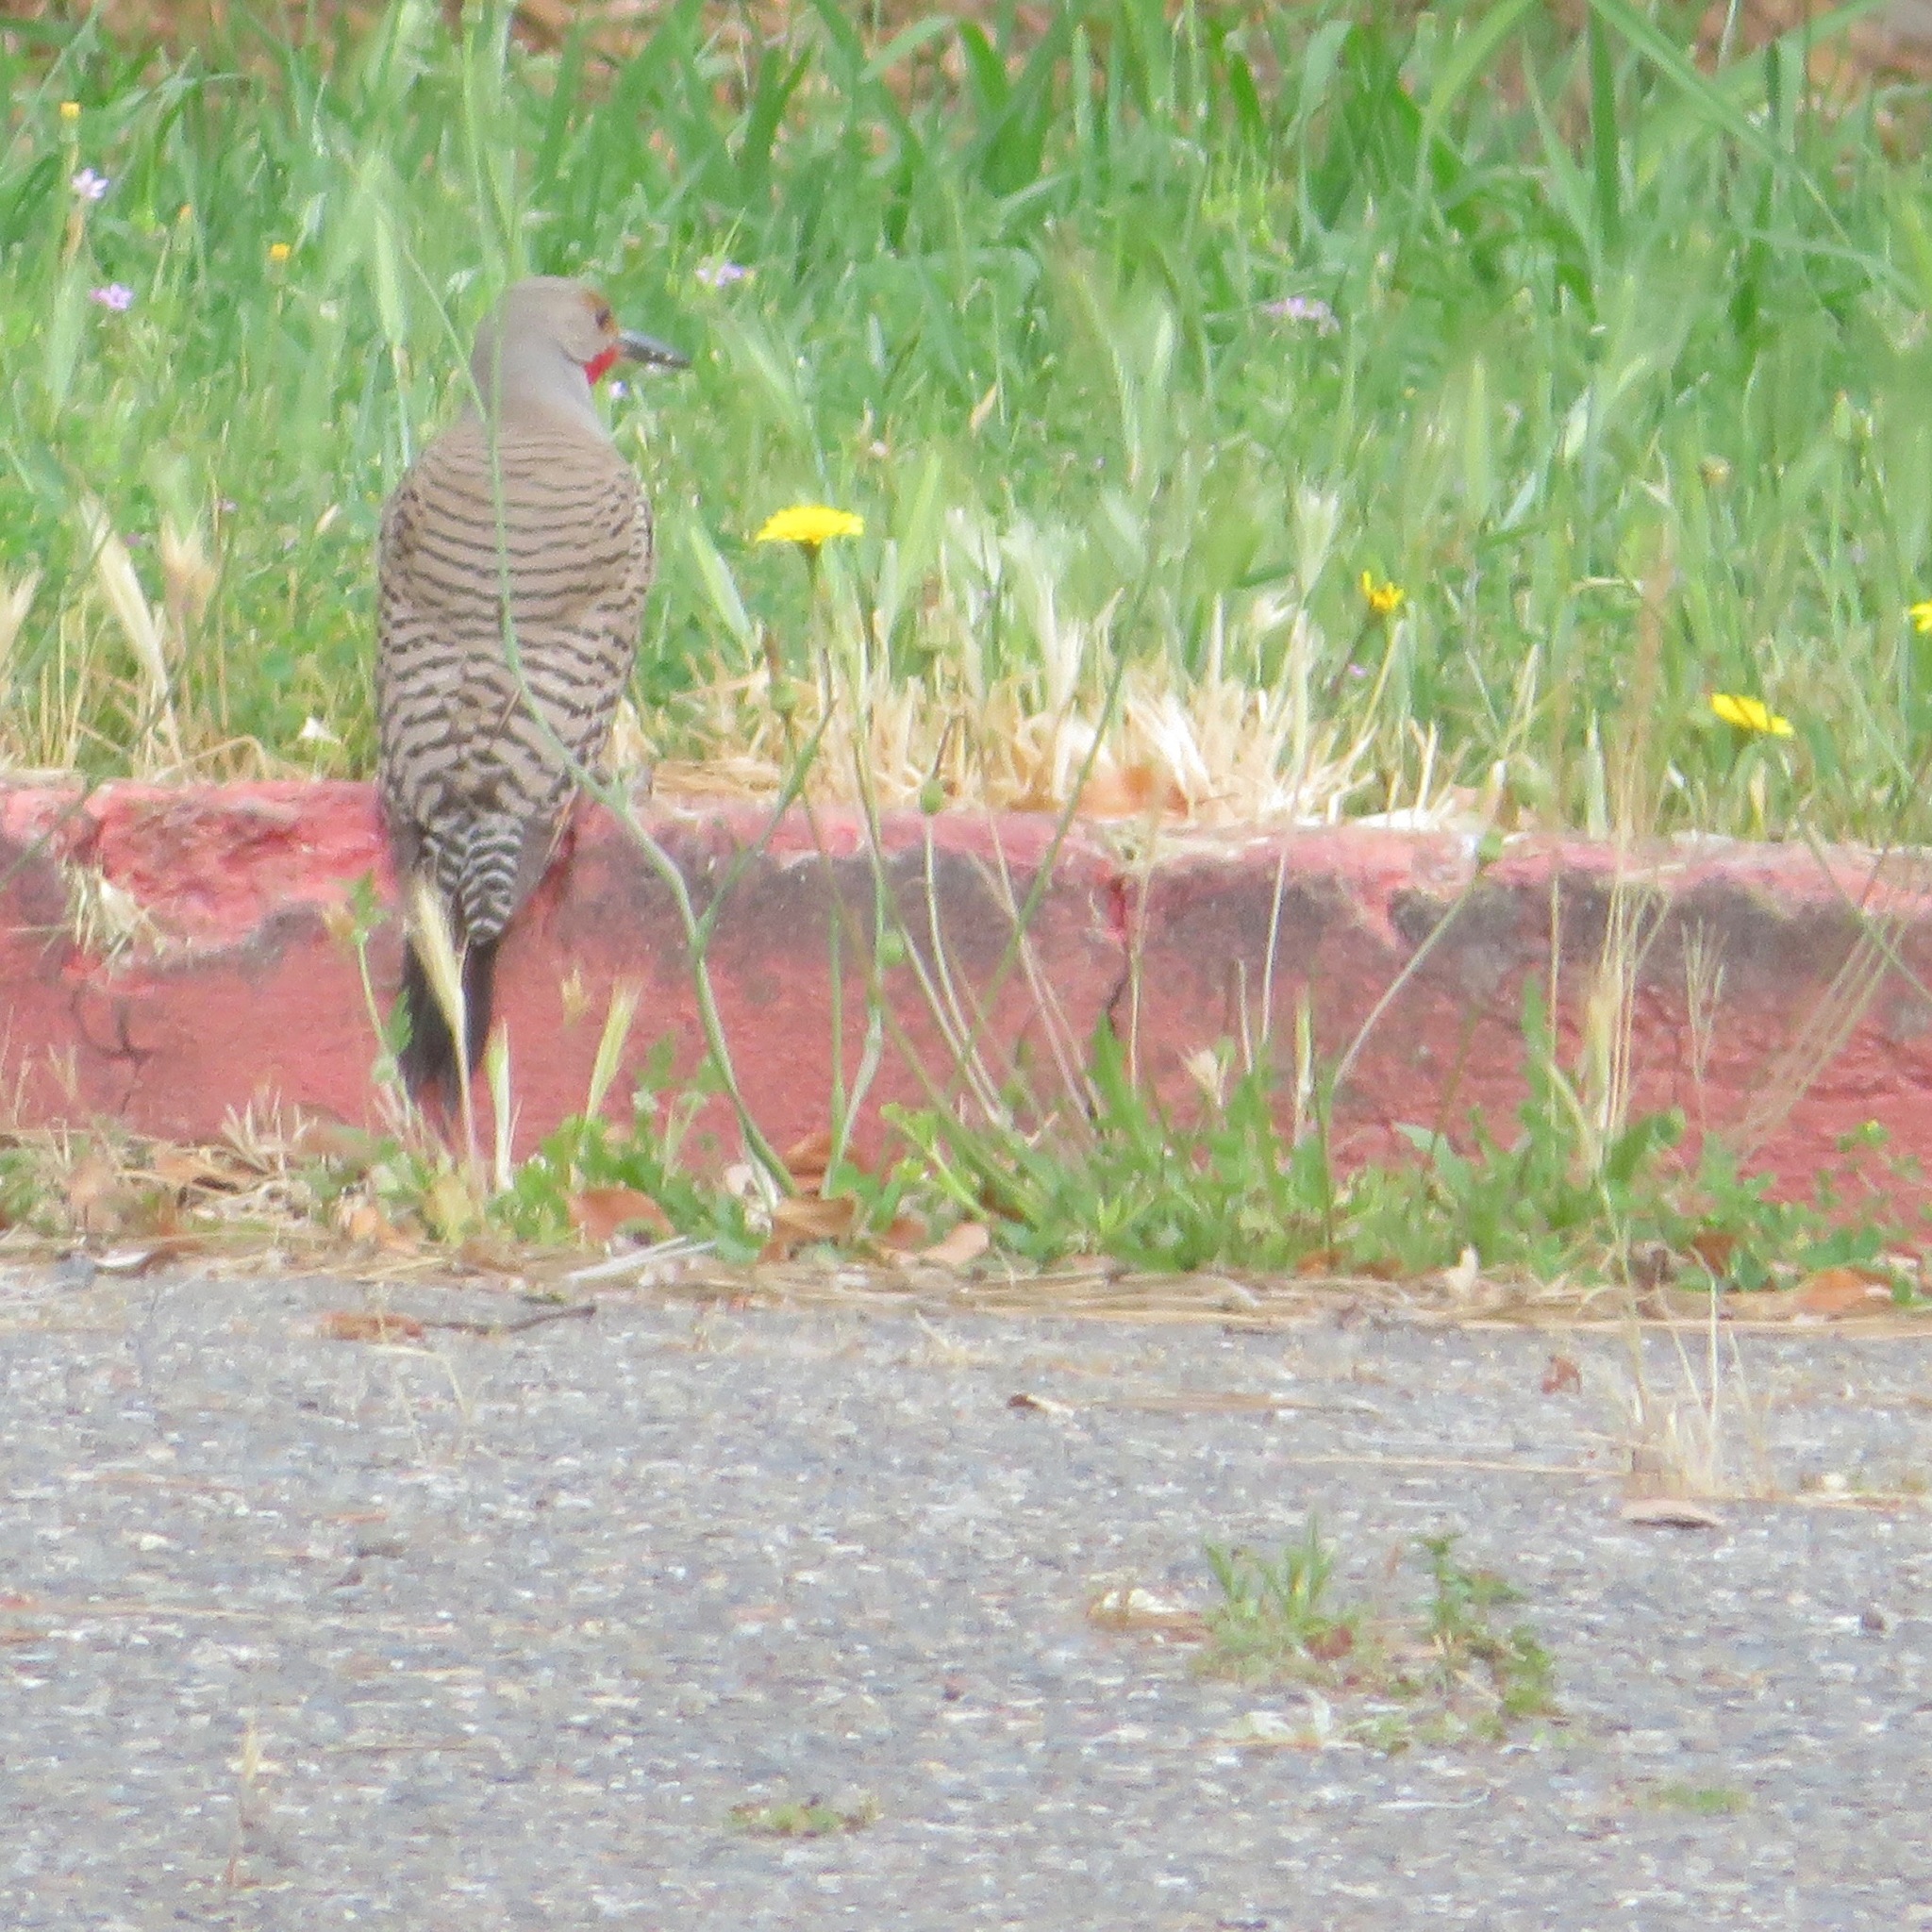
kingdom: Animalia
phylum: Chordata
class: Aves
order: Piciformes
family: Picidae
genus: Colaptes
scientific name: Colaptes auratus
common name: Northern flicker
